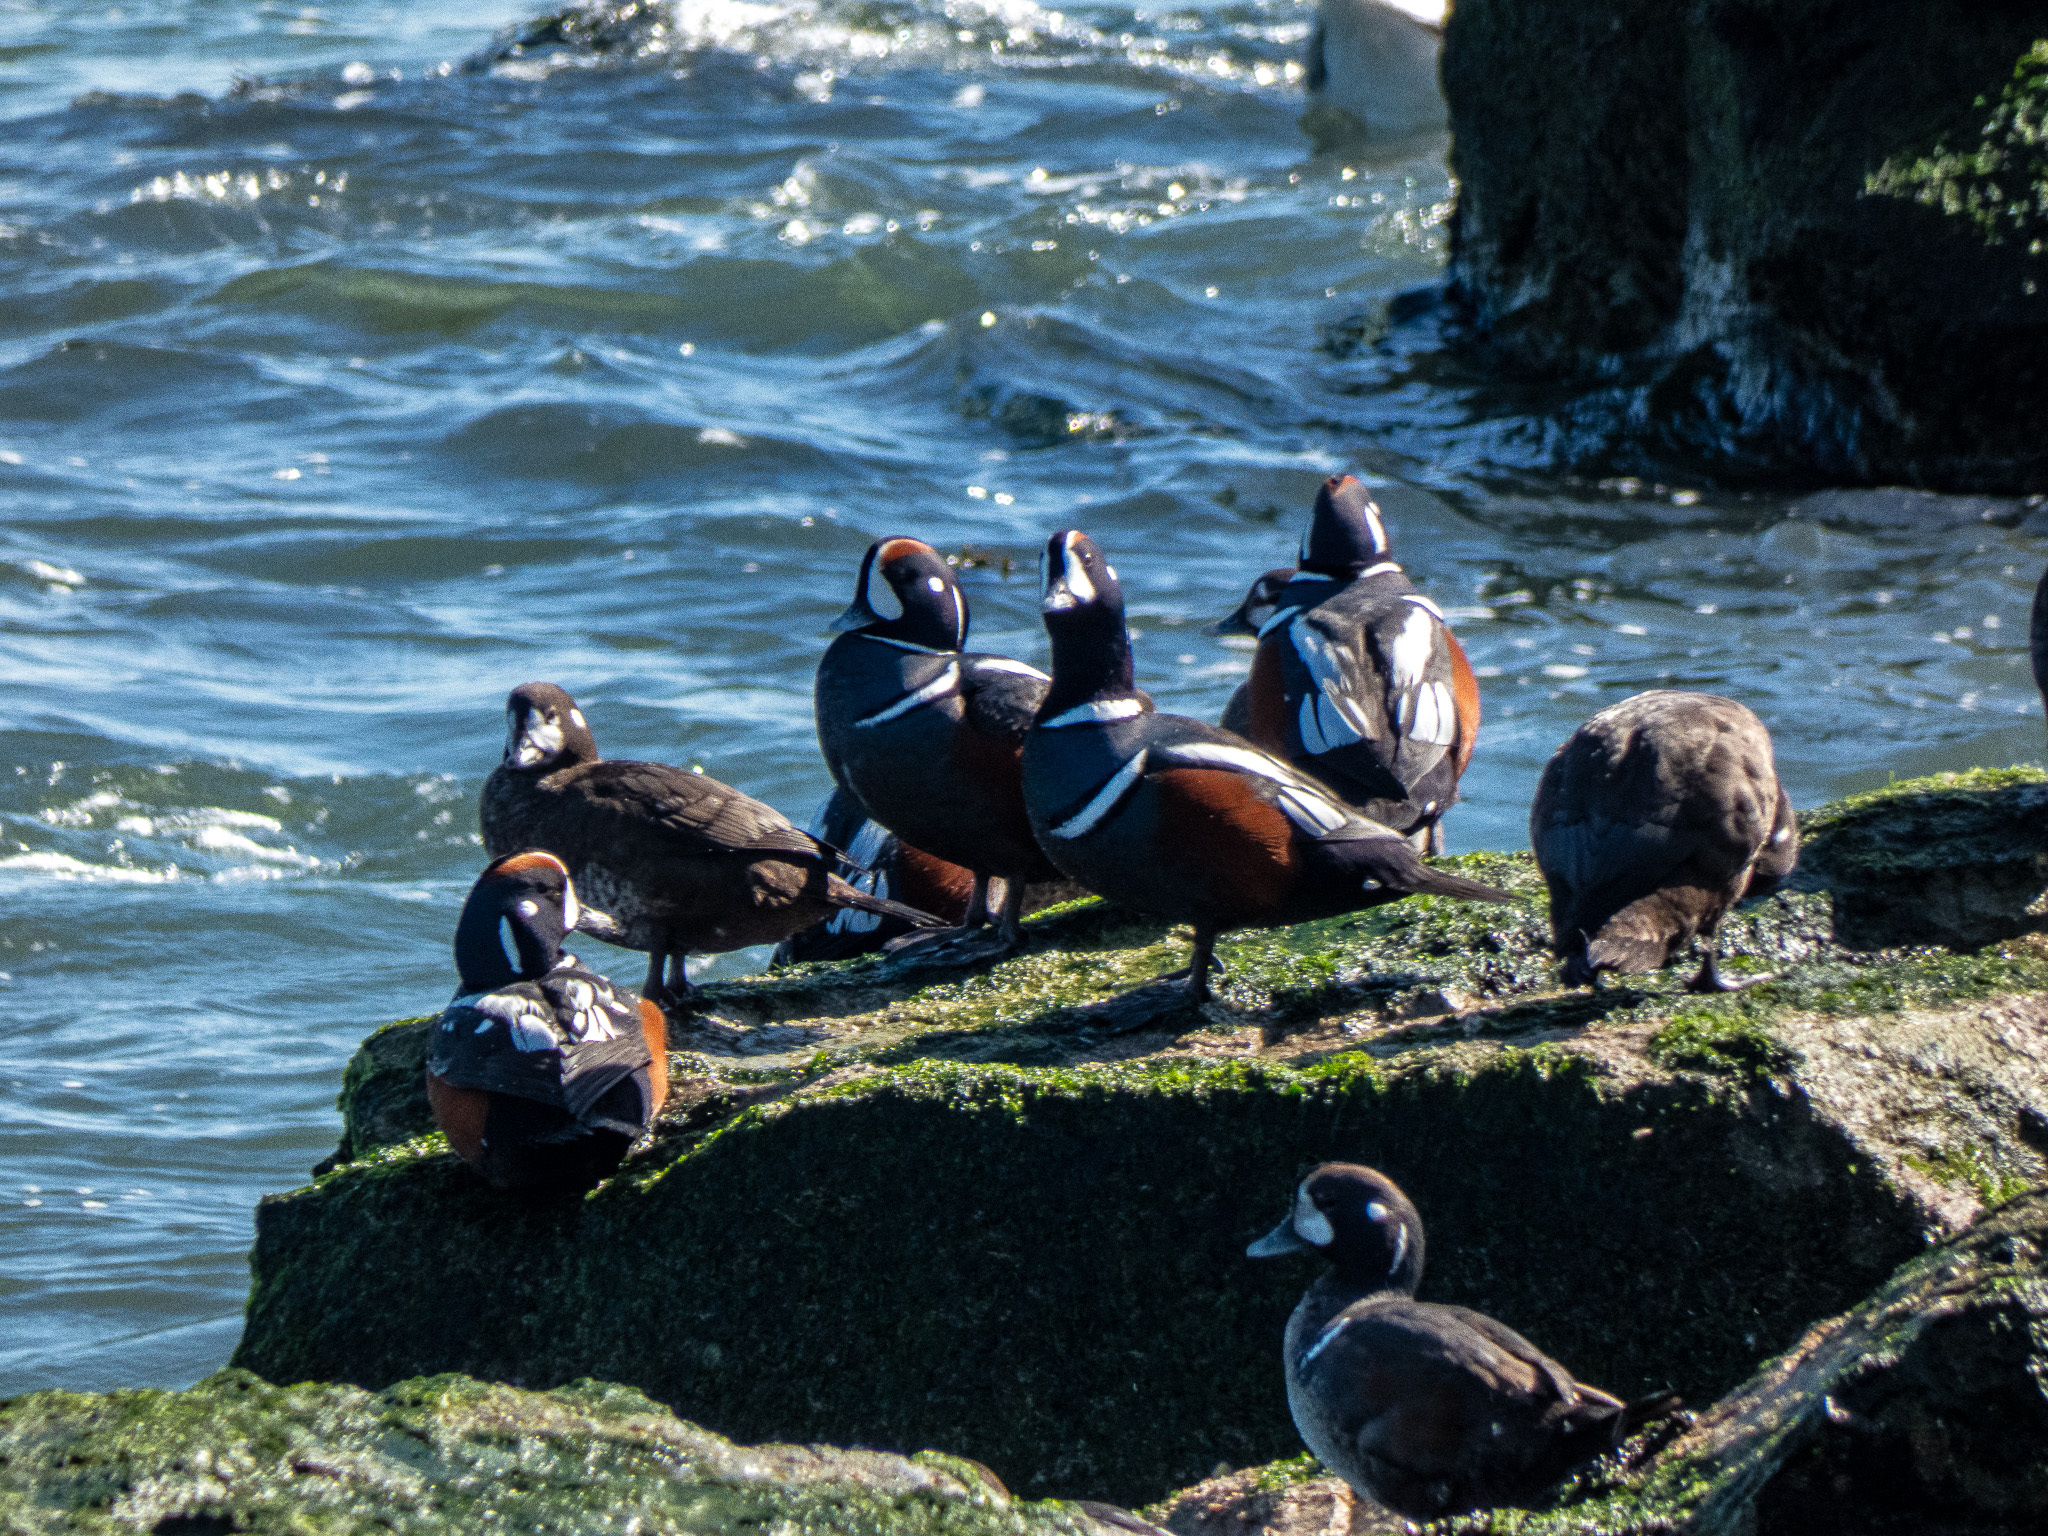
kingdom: Animalia
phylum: Chordata
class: Aves
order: Anseriformes
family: Anatidae
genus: Histrionicus
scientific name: Histrionicus histrionicus
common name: Harlequin duck
